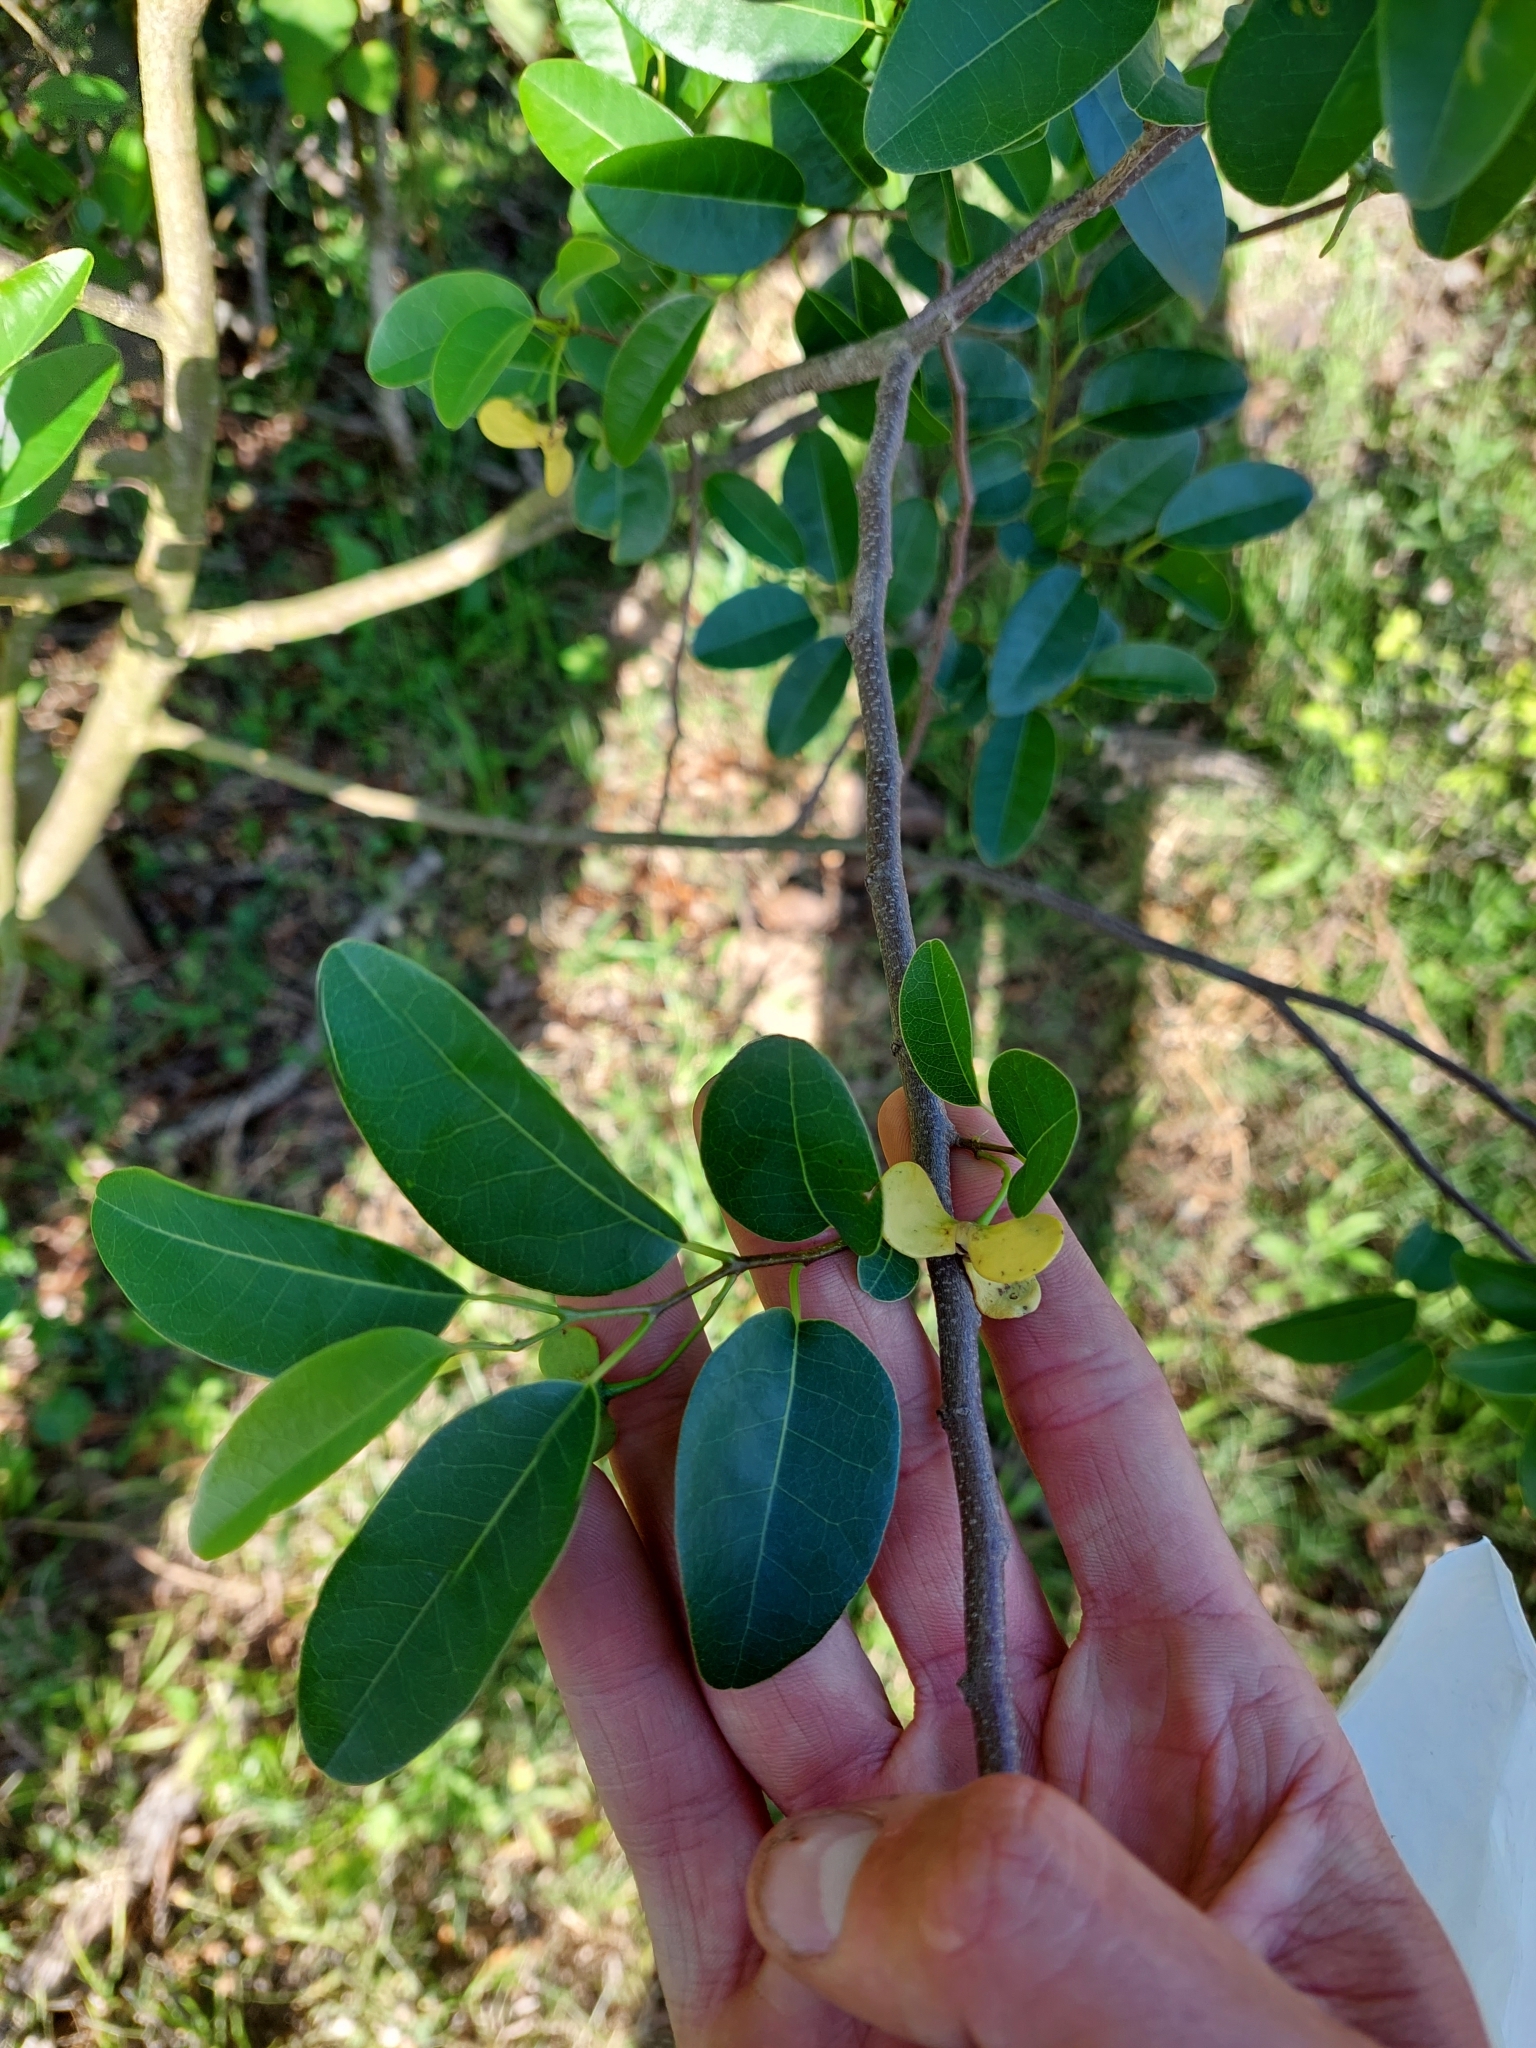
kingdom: Plantae
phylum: Tracheophyta
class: Magnoliopsida
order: Magnoliales
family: Annonaceae
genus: Annona
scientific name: Annona emarginata
